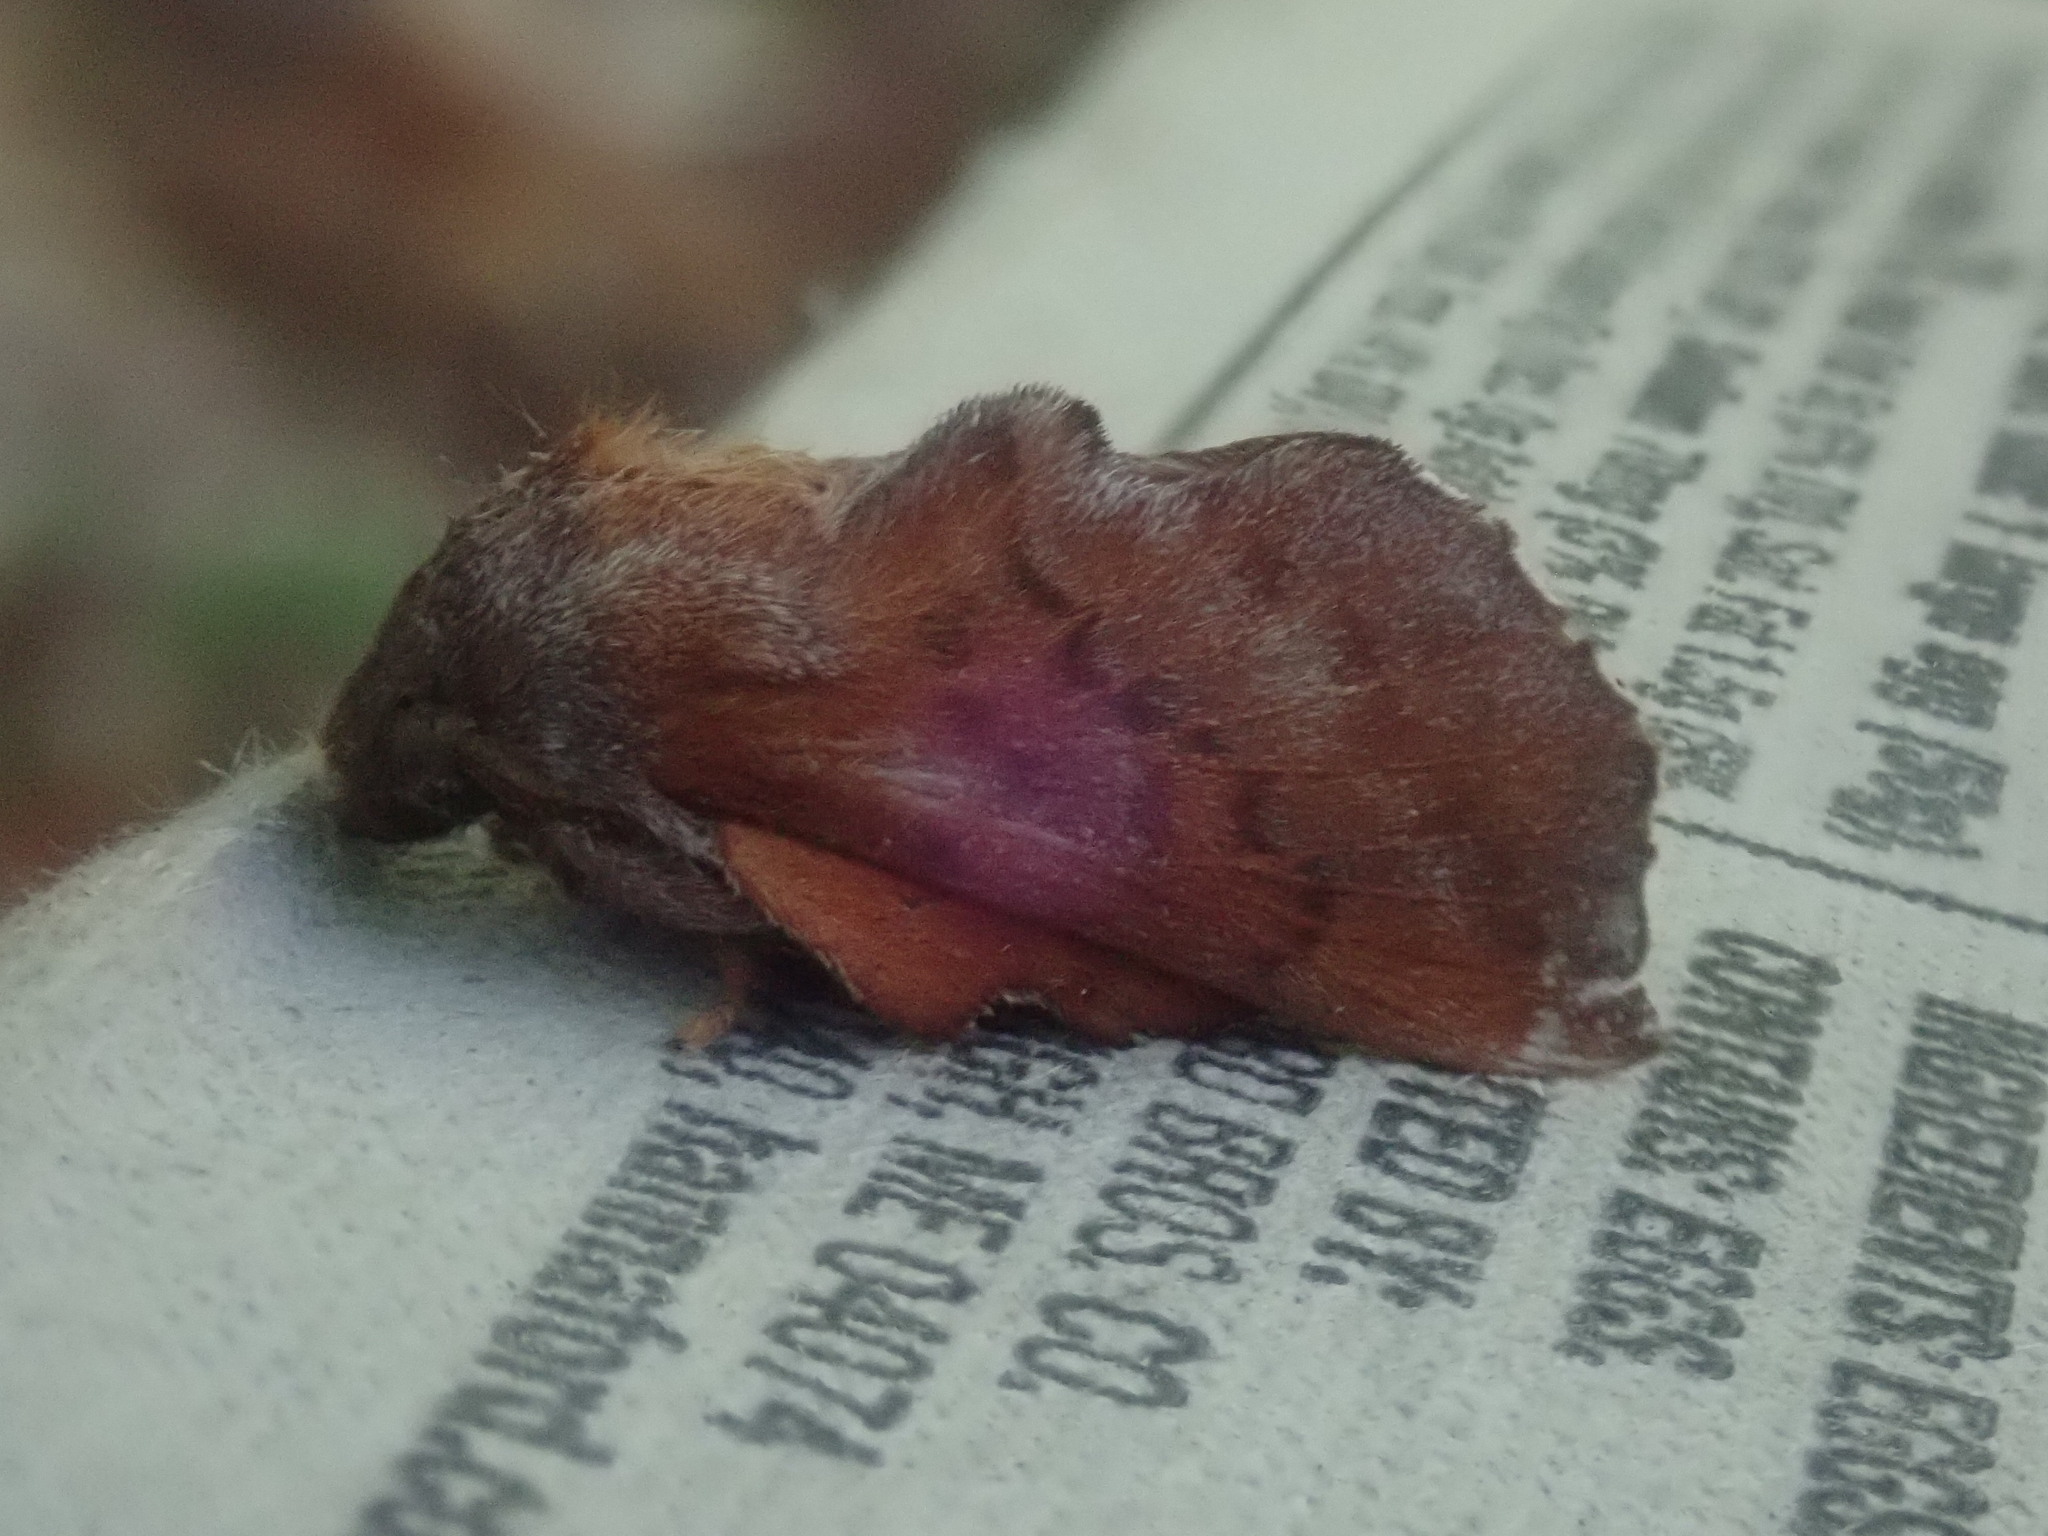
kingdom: Animalia
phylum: Arthropoda
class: Insecta
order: Lepidoptera
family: Lasiocampidae
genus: Phyllodesma
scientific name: Phyllodesma americana
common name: American lappet moth
